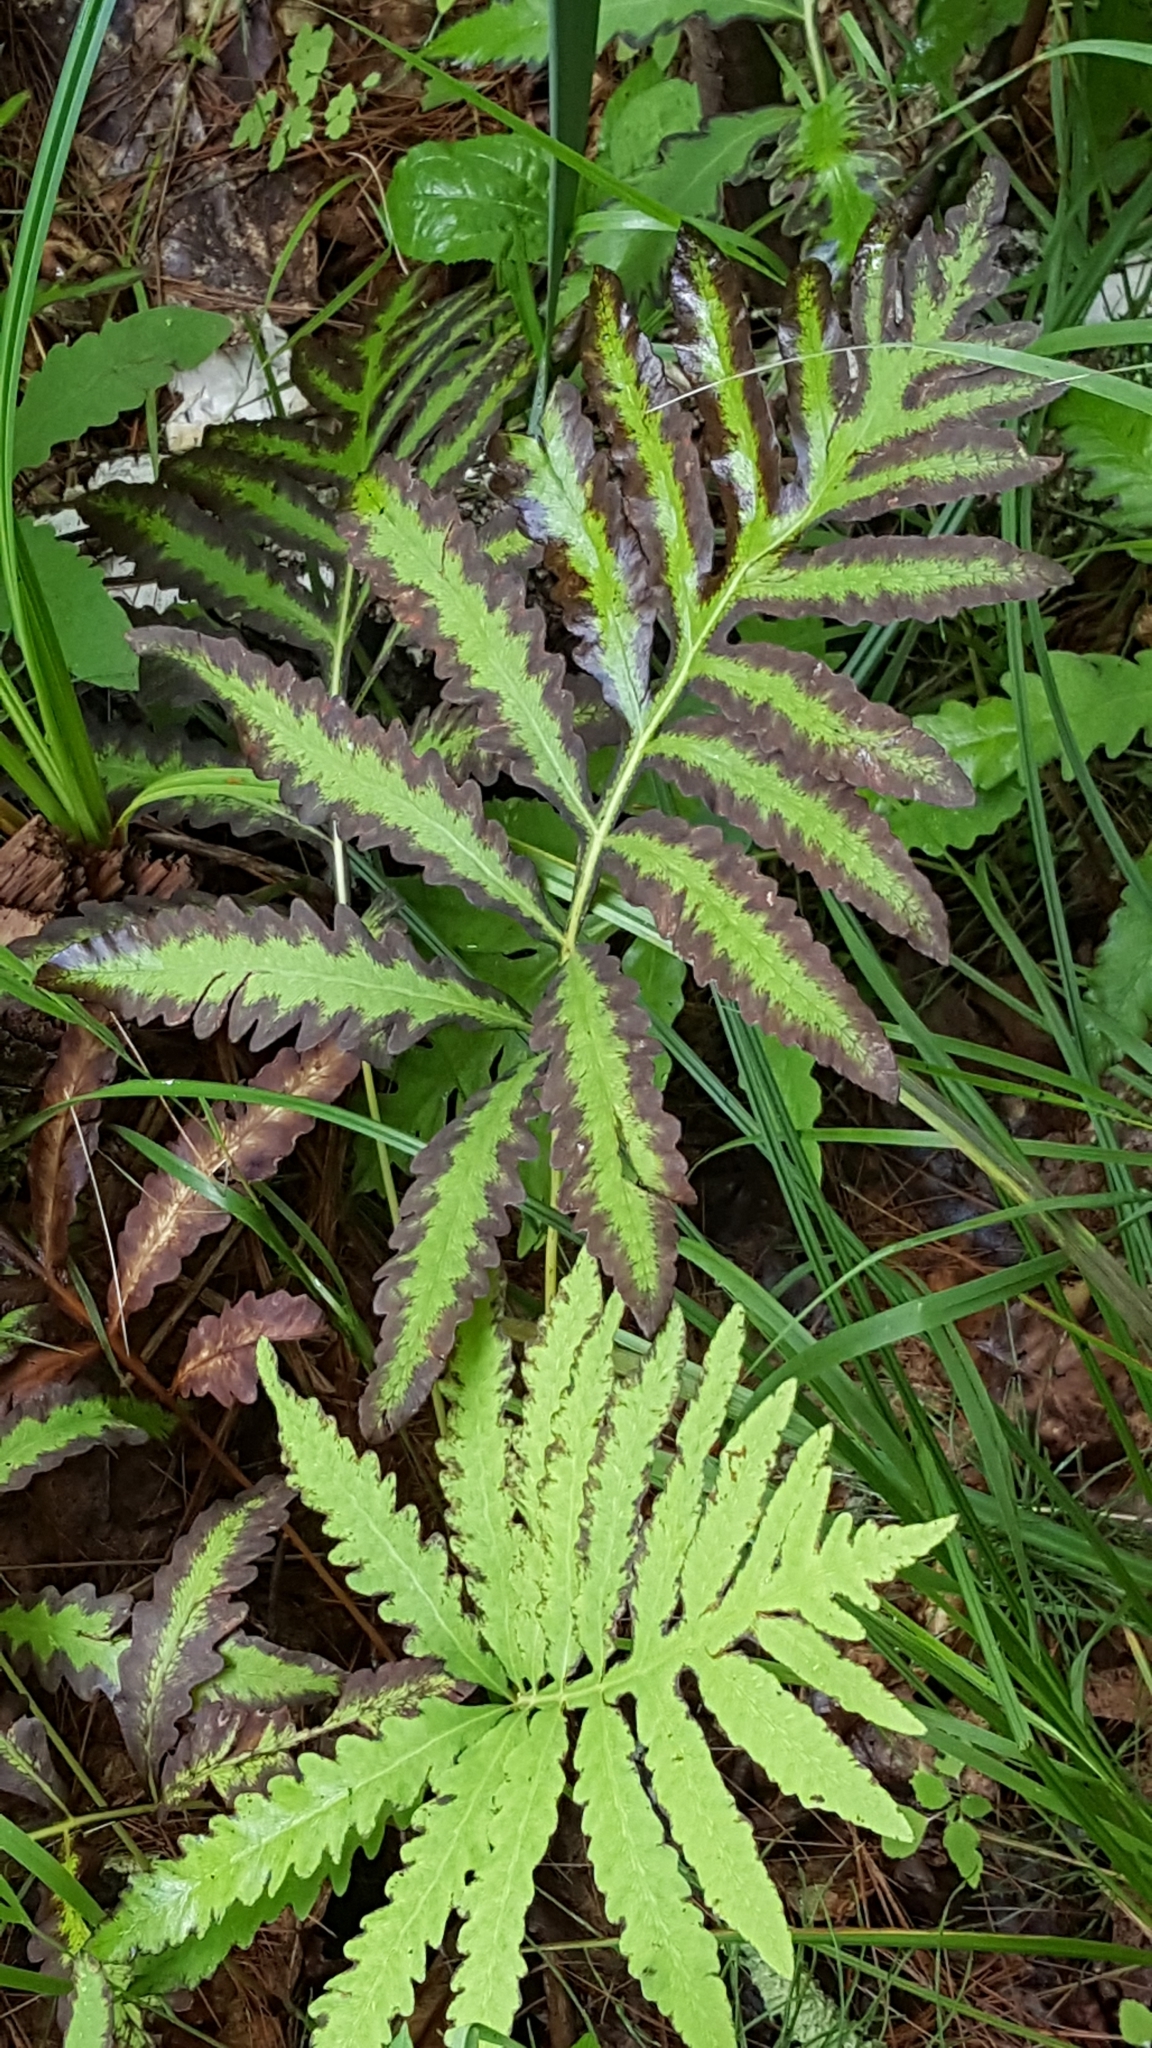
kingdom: Plantae
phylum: Tracheophyta
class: Polypodiopsida
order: Polypodiales
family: Onocleaceae
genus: Onoclea
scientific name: Onoclea sensibilis
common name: Sensitive fern
